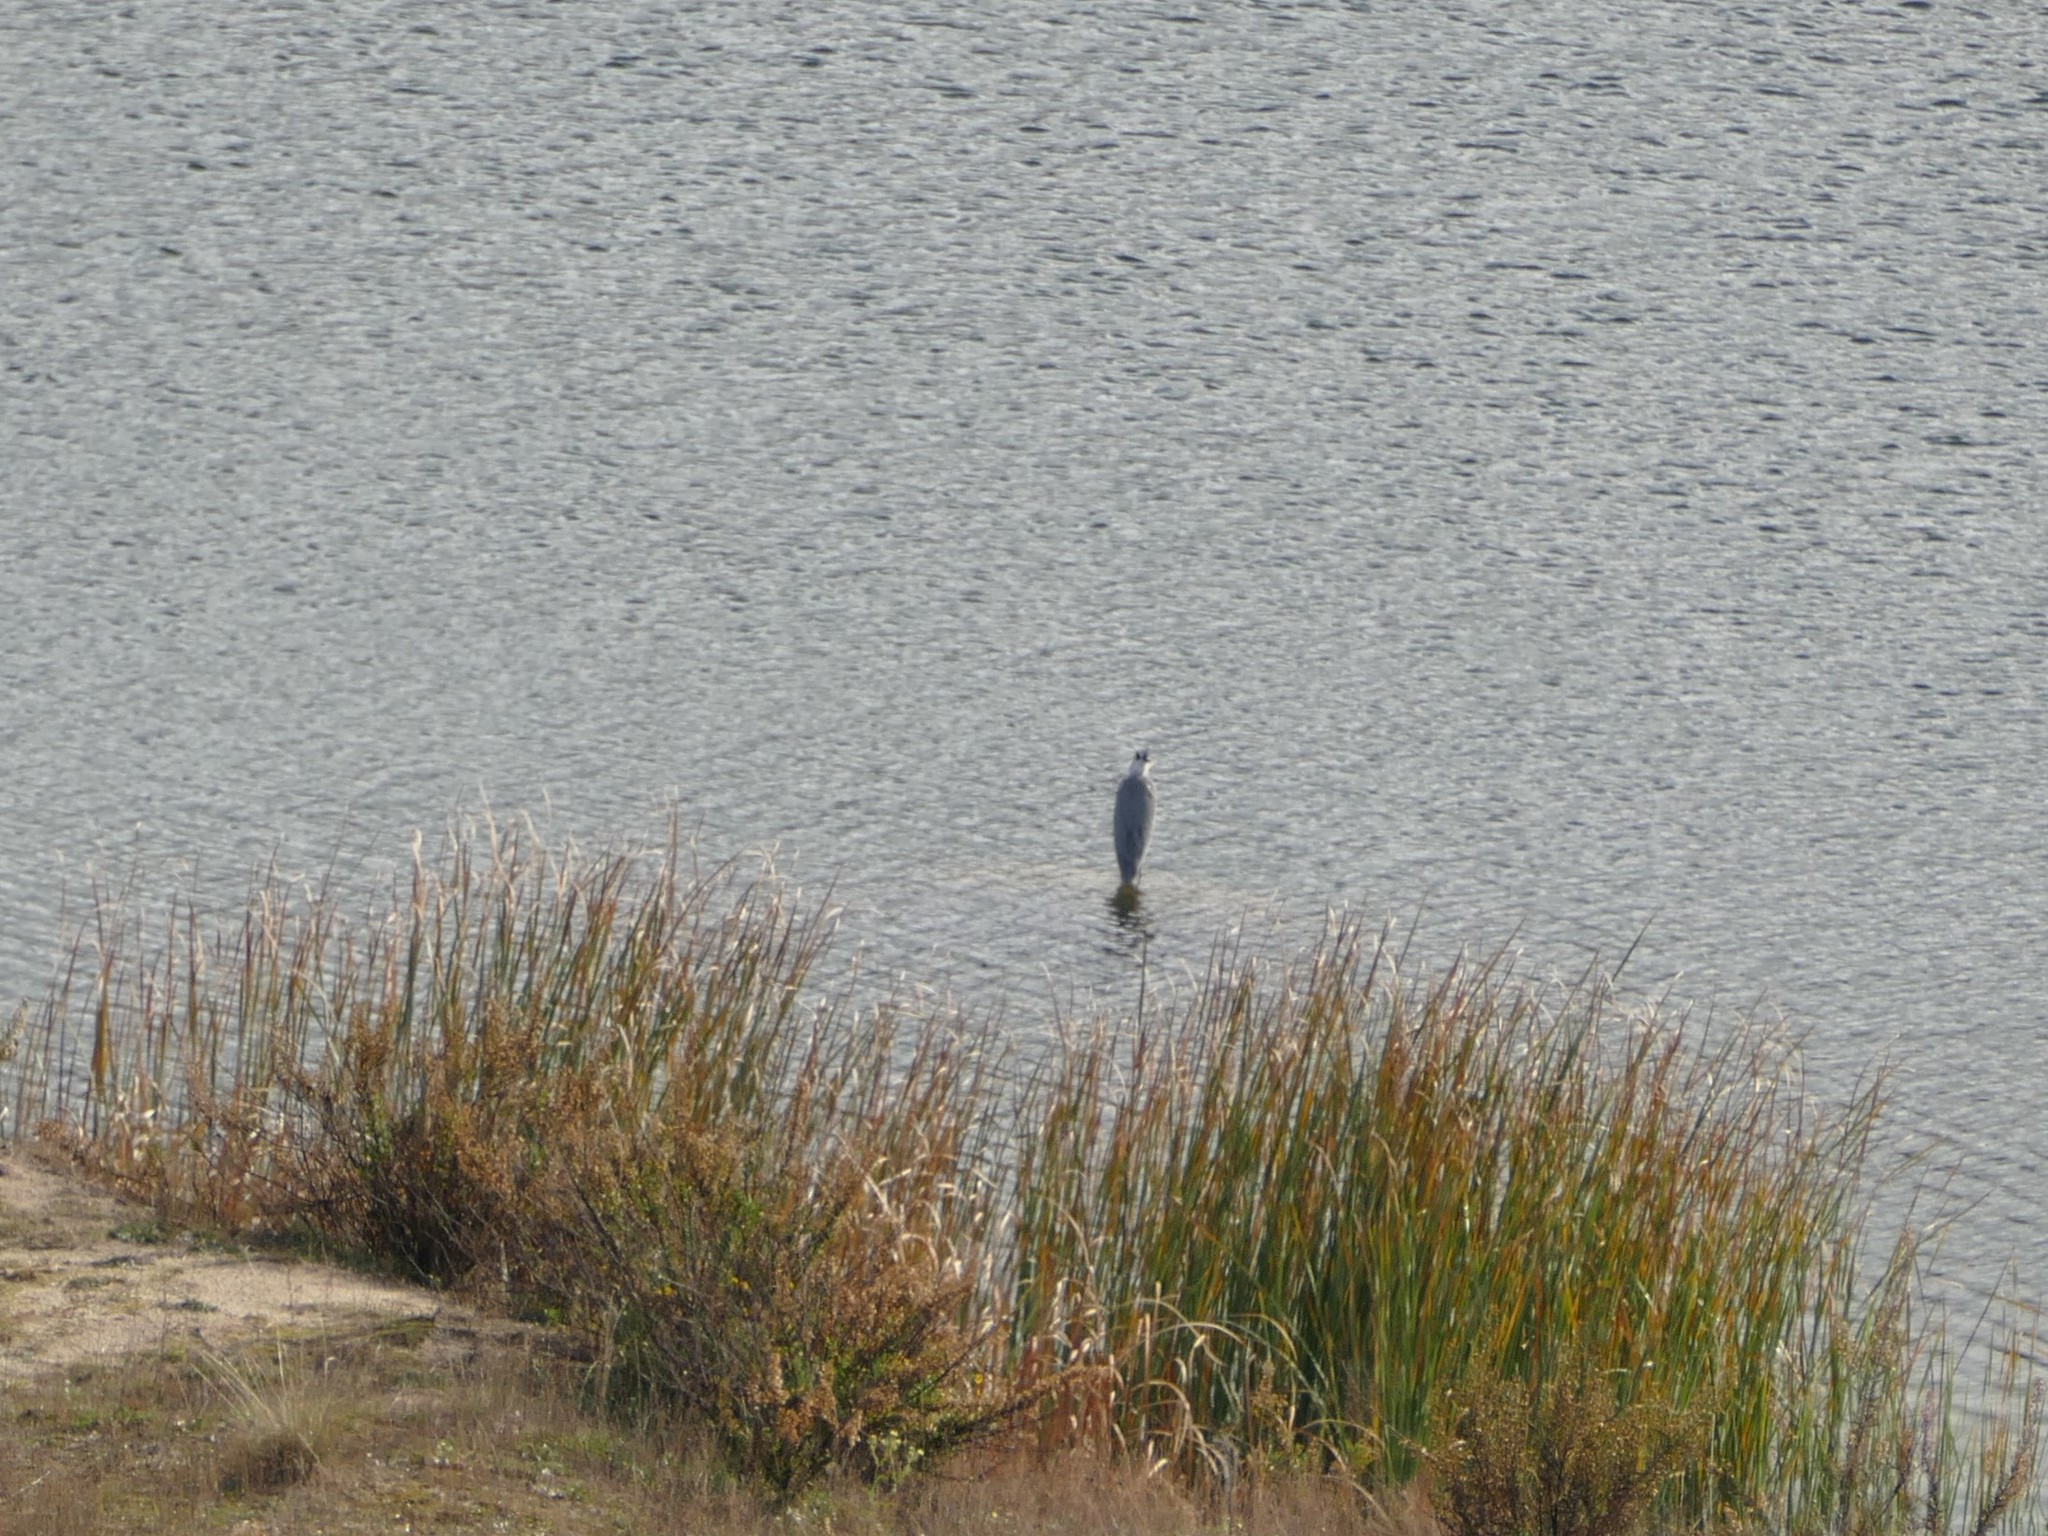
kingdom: Animalia
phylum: Chordata
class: Aves
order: Pelecaniformes
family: Ardeidae
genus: Ardea
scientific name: Ardea cinerea
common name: Grey heron
